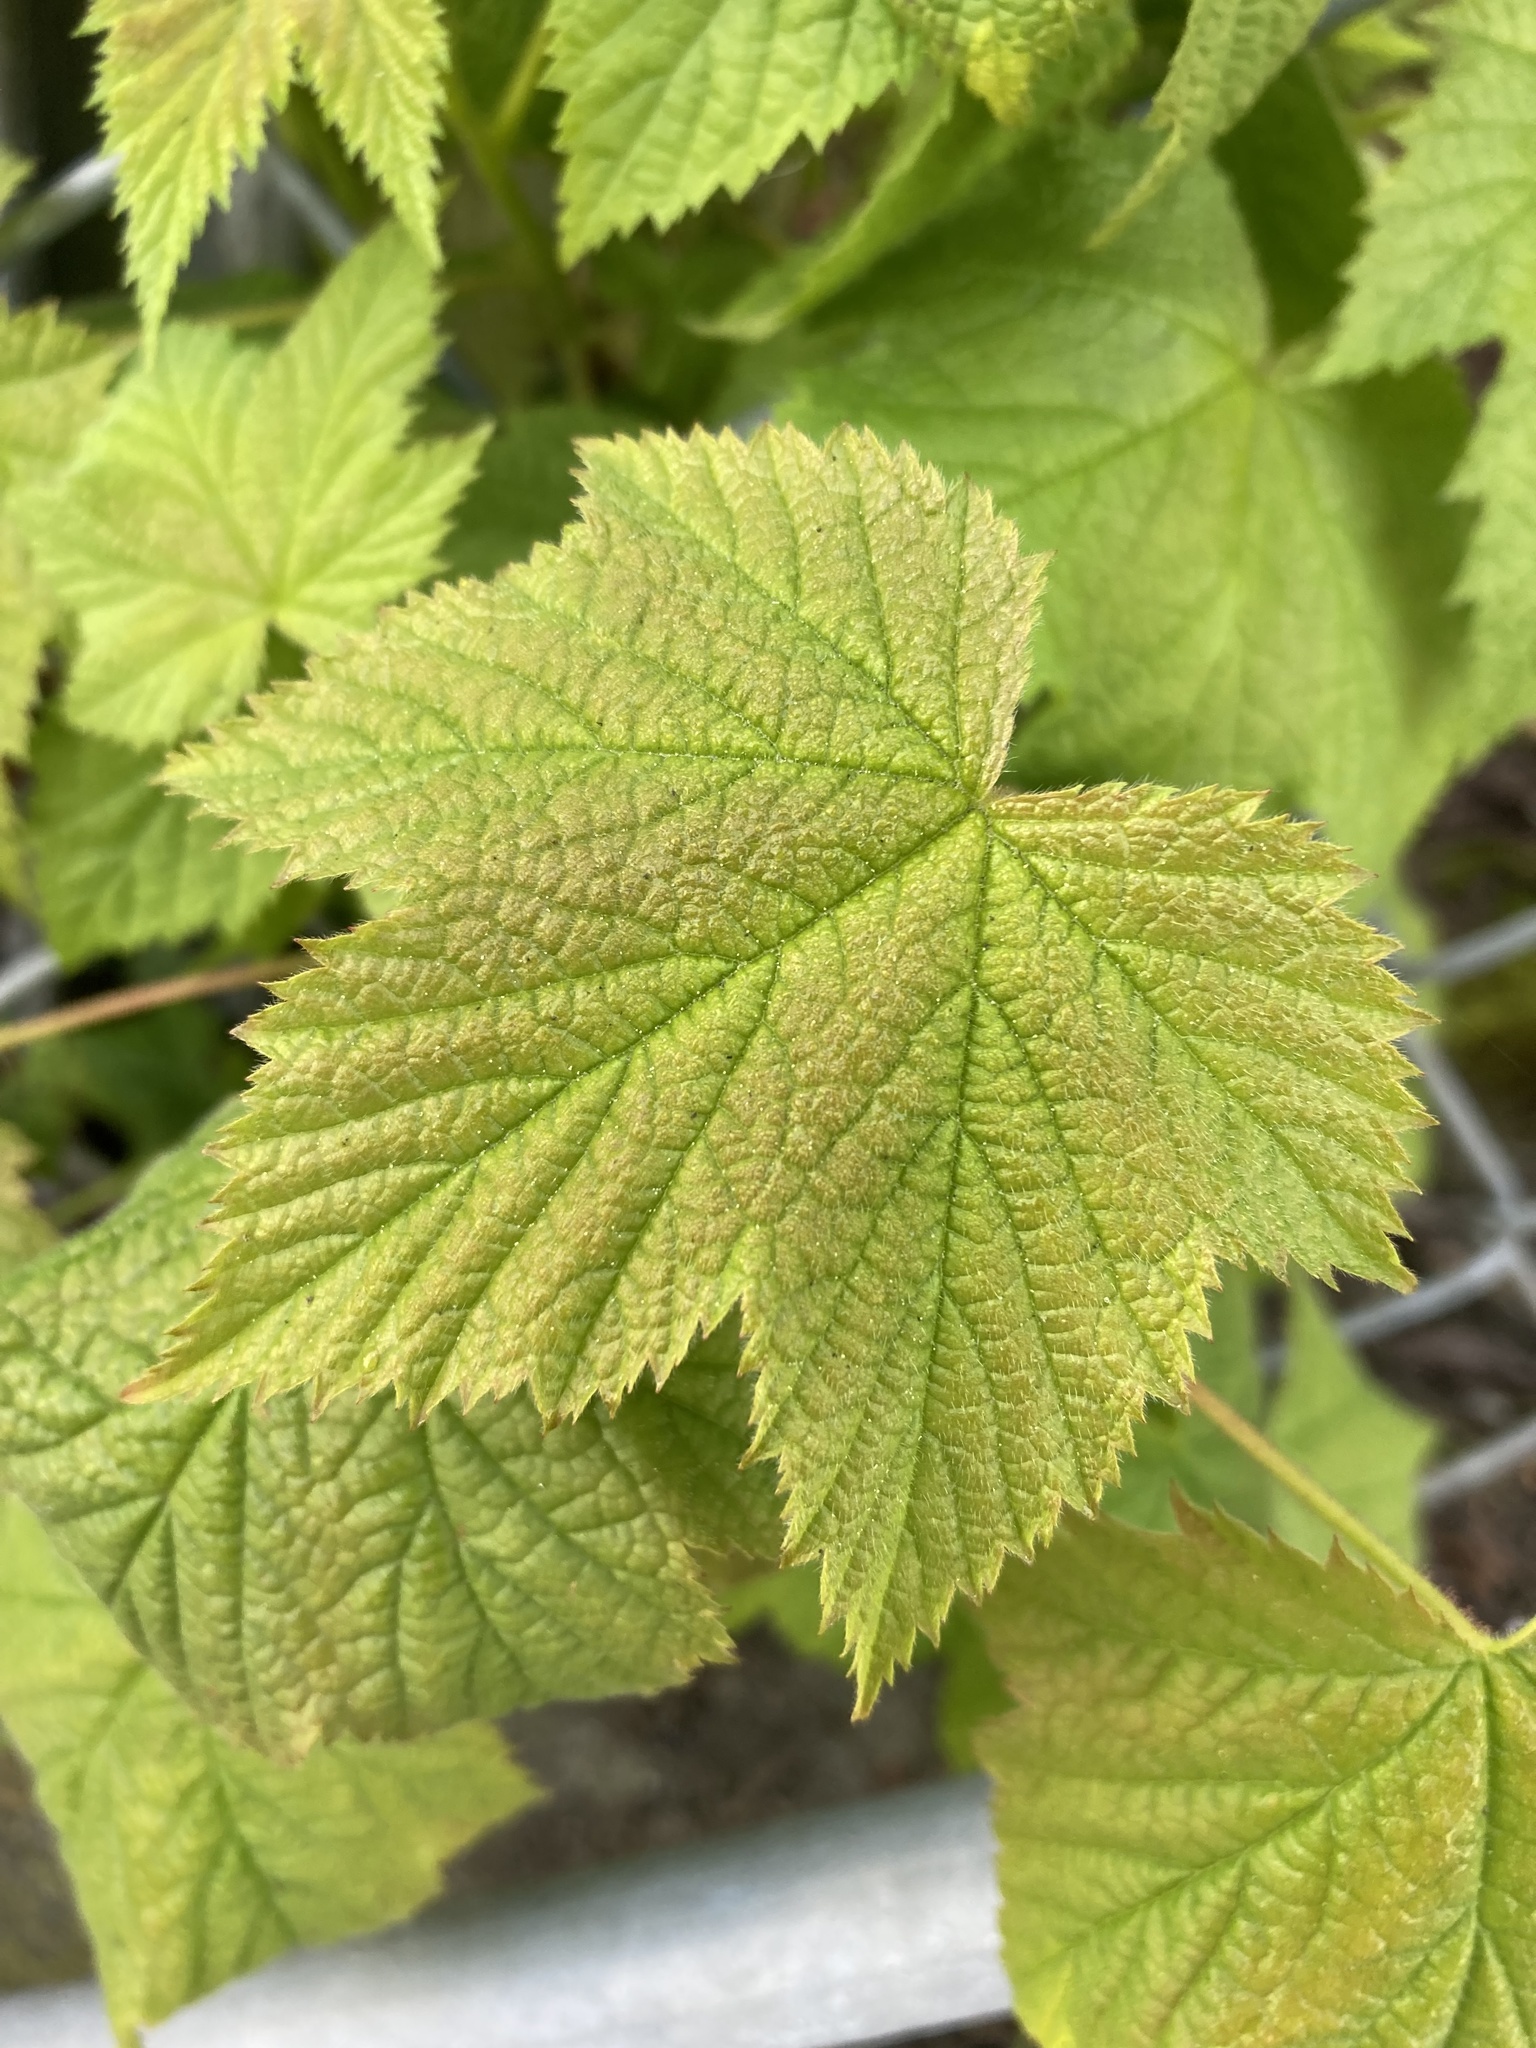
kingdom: Plantae
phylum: Tracheophyta
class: Magnoliopsida
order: Rosales
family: Rosaceae
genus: Rubus
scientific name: Rubus parviflorus
